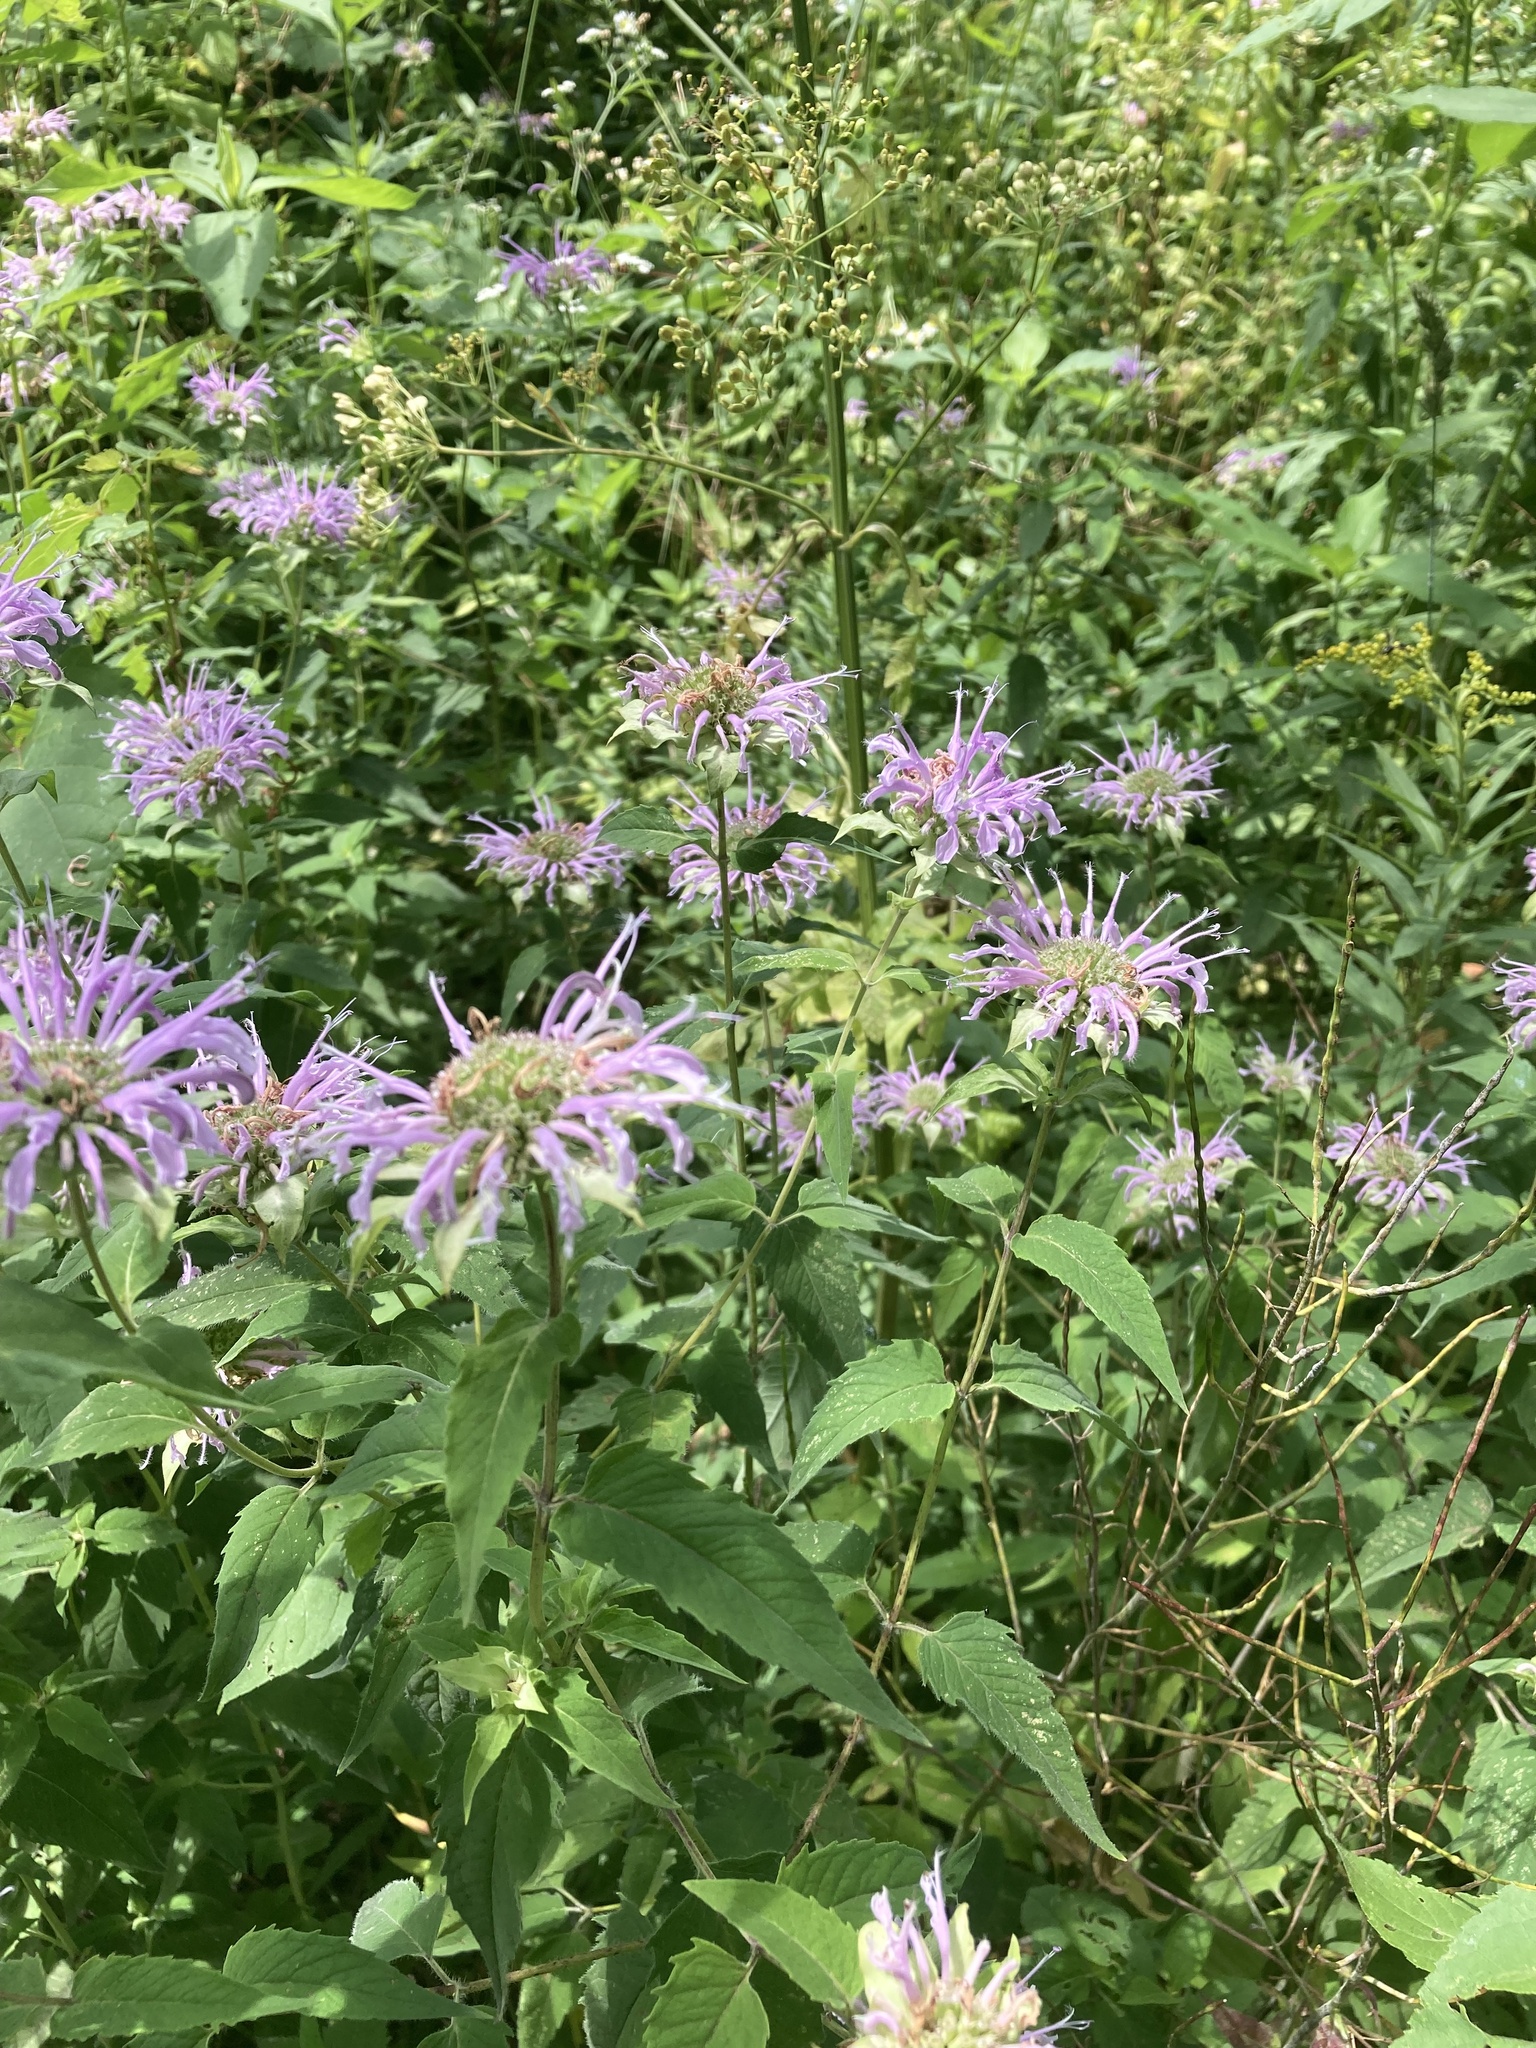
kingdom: Plantae
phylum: Tracheophyta
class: Magnoliopsida
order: Lamiales
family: Lamiaceae
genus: Monarda
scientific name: Monarda fistulosa
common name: Purple beebalm
